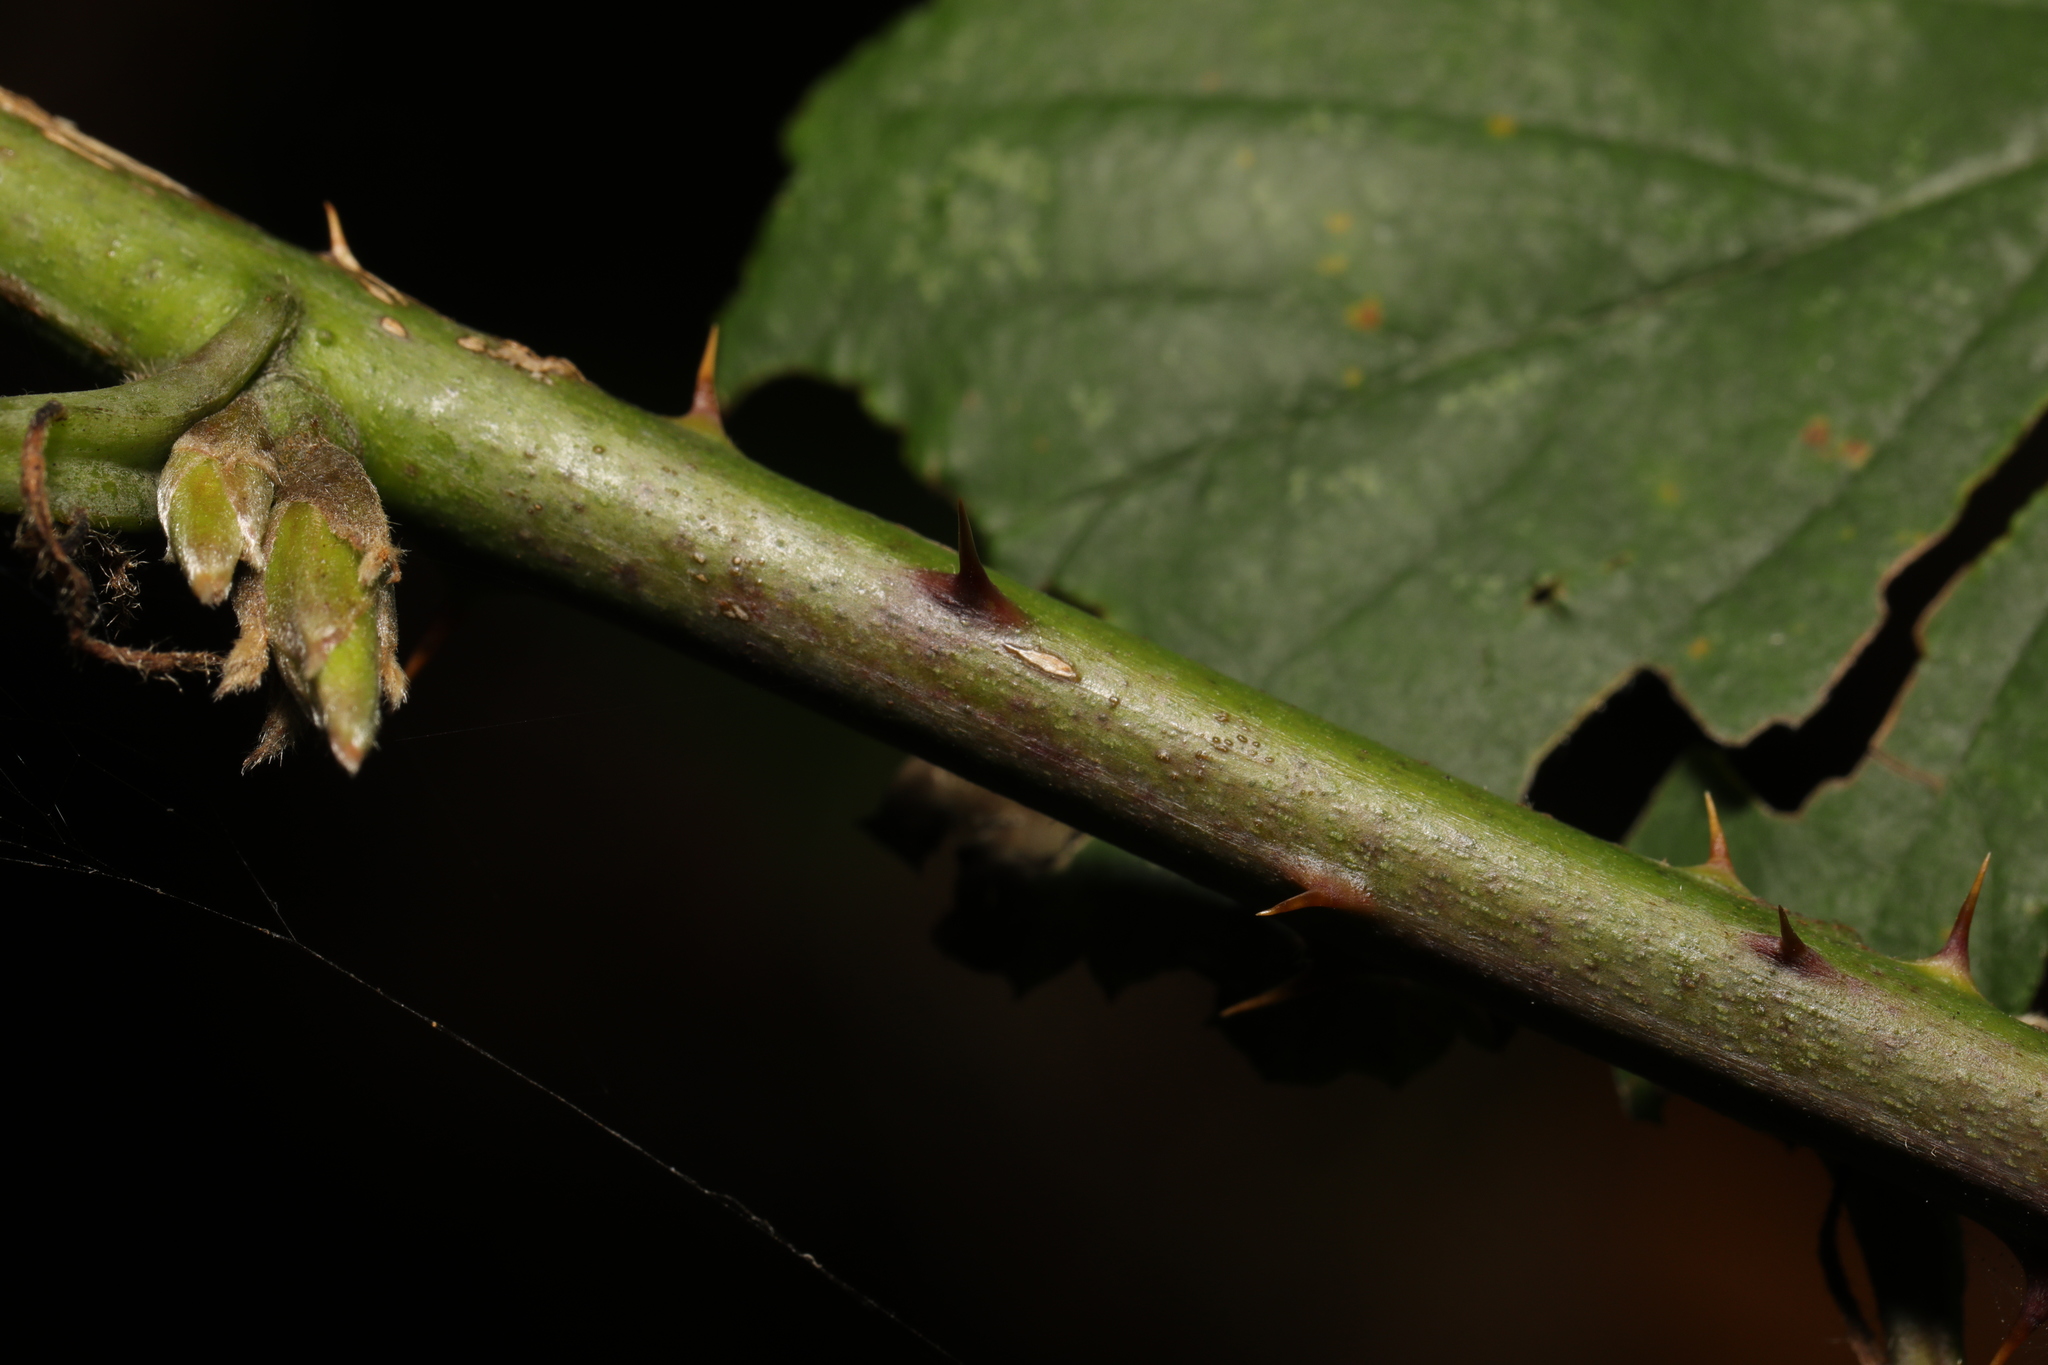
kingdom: Plantae
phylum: Tracheophyta
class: Magnoliopsida
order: Rosales
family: Rosaceae
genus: Rubus
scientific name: Rubus cissburiensis
